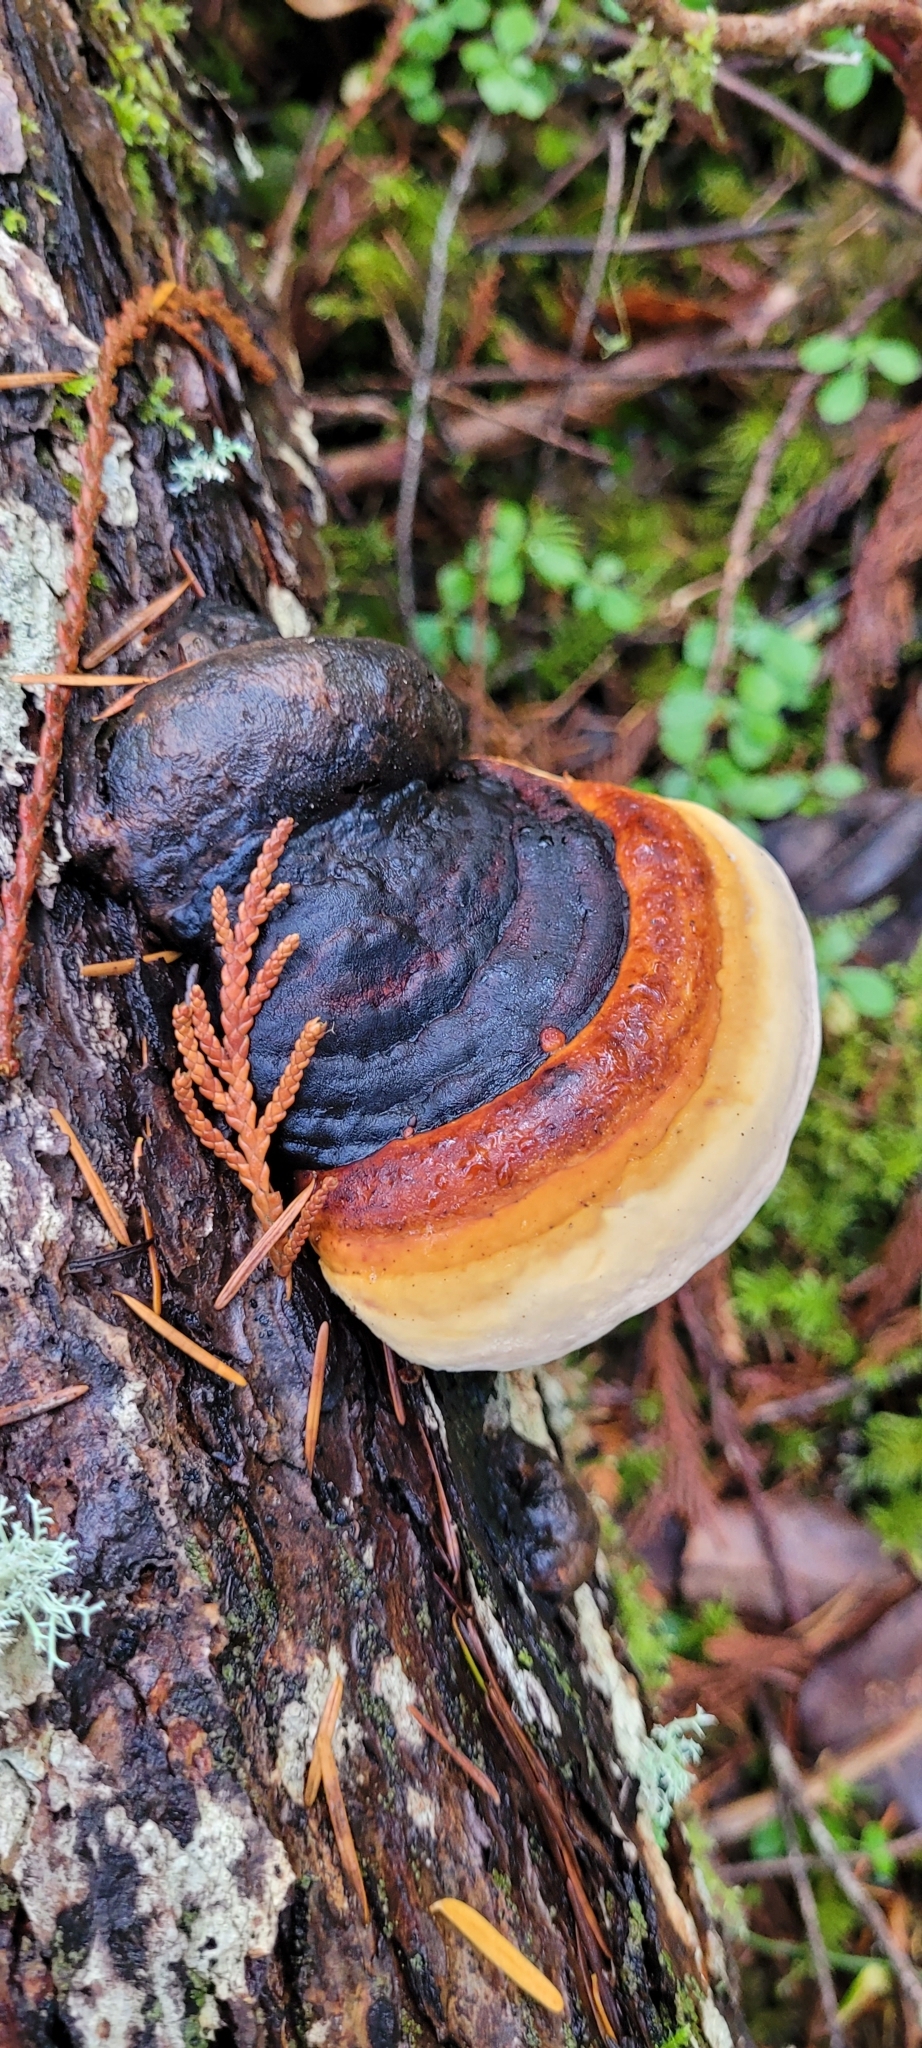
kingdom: Fungi
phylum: Basidiomycota
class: Agaricomycetes
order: Polyporales
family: Fomitopsidaceae
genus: Fomitopsis
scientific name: Fomitopsis mounceae
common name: Northern red belt
